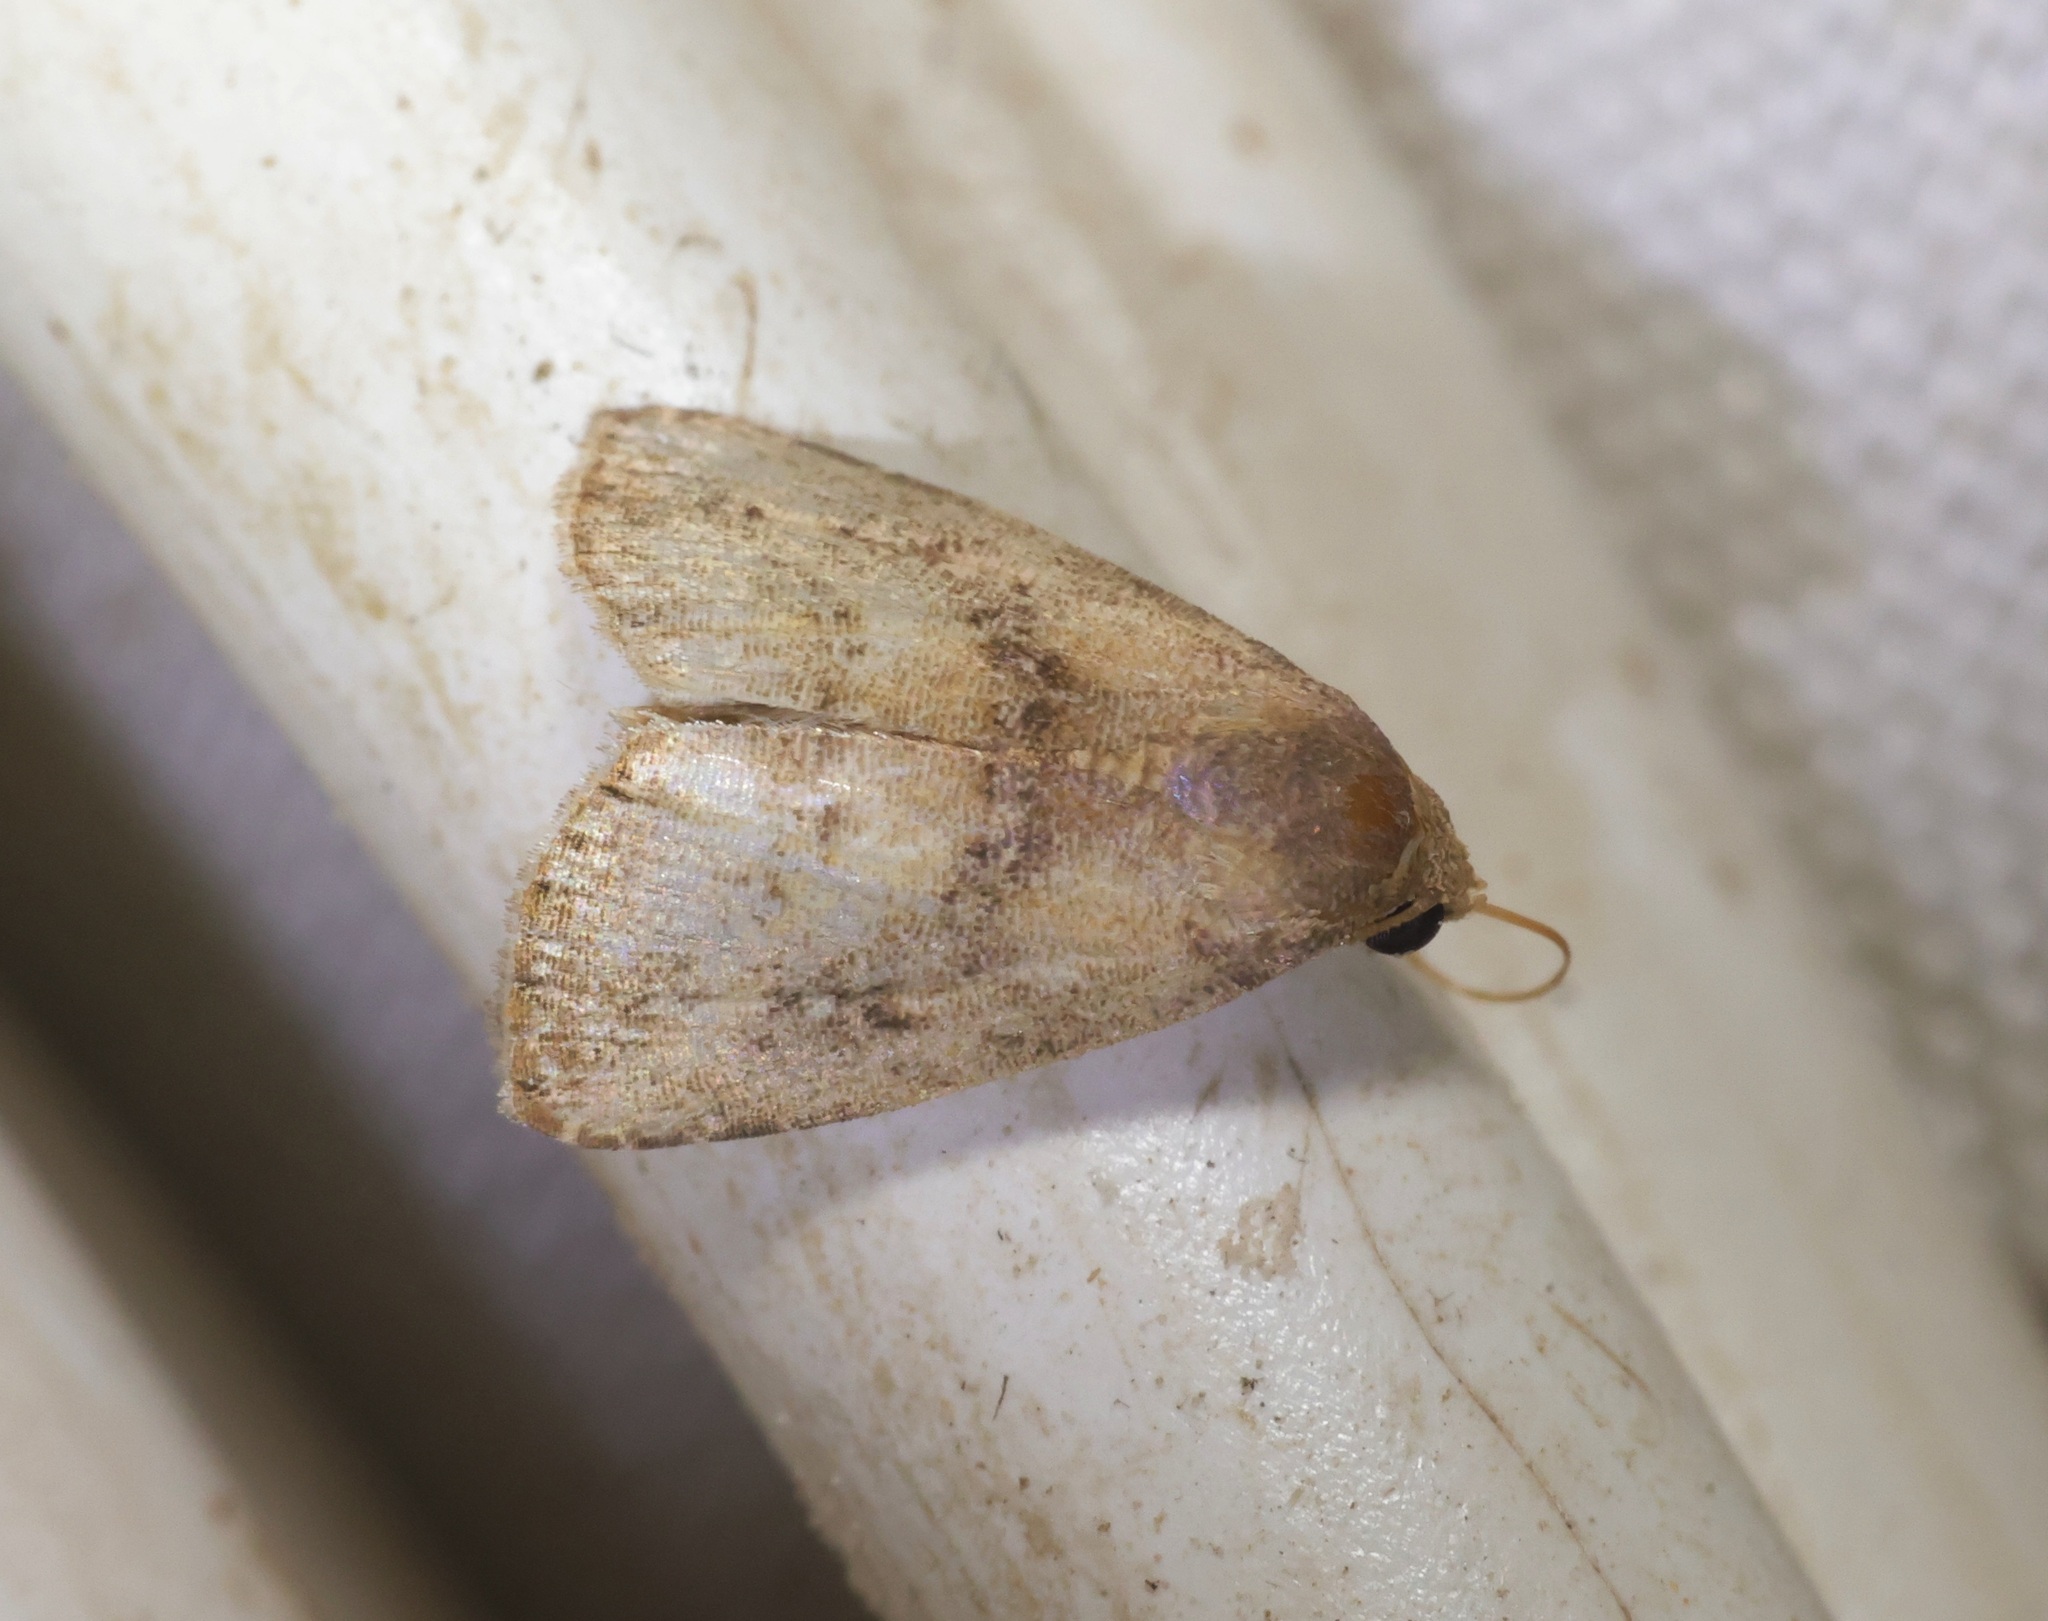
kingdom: Animalia
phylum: Arthropoda
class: Insecta
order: Lepidoptera
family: Erebidae
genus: Rivula
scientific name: Rivula sordida
